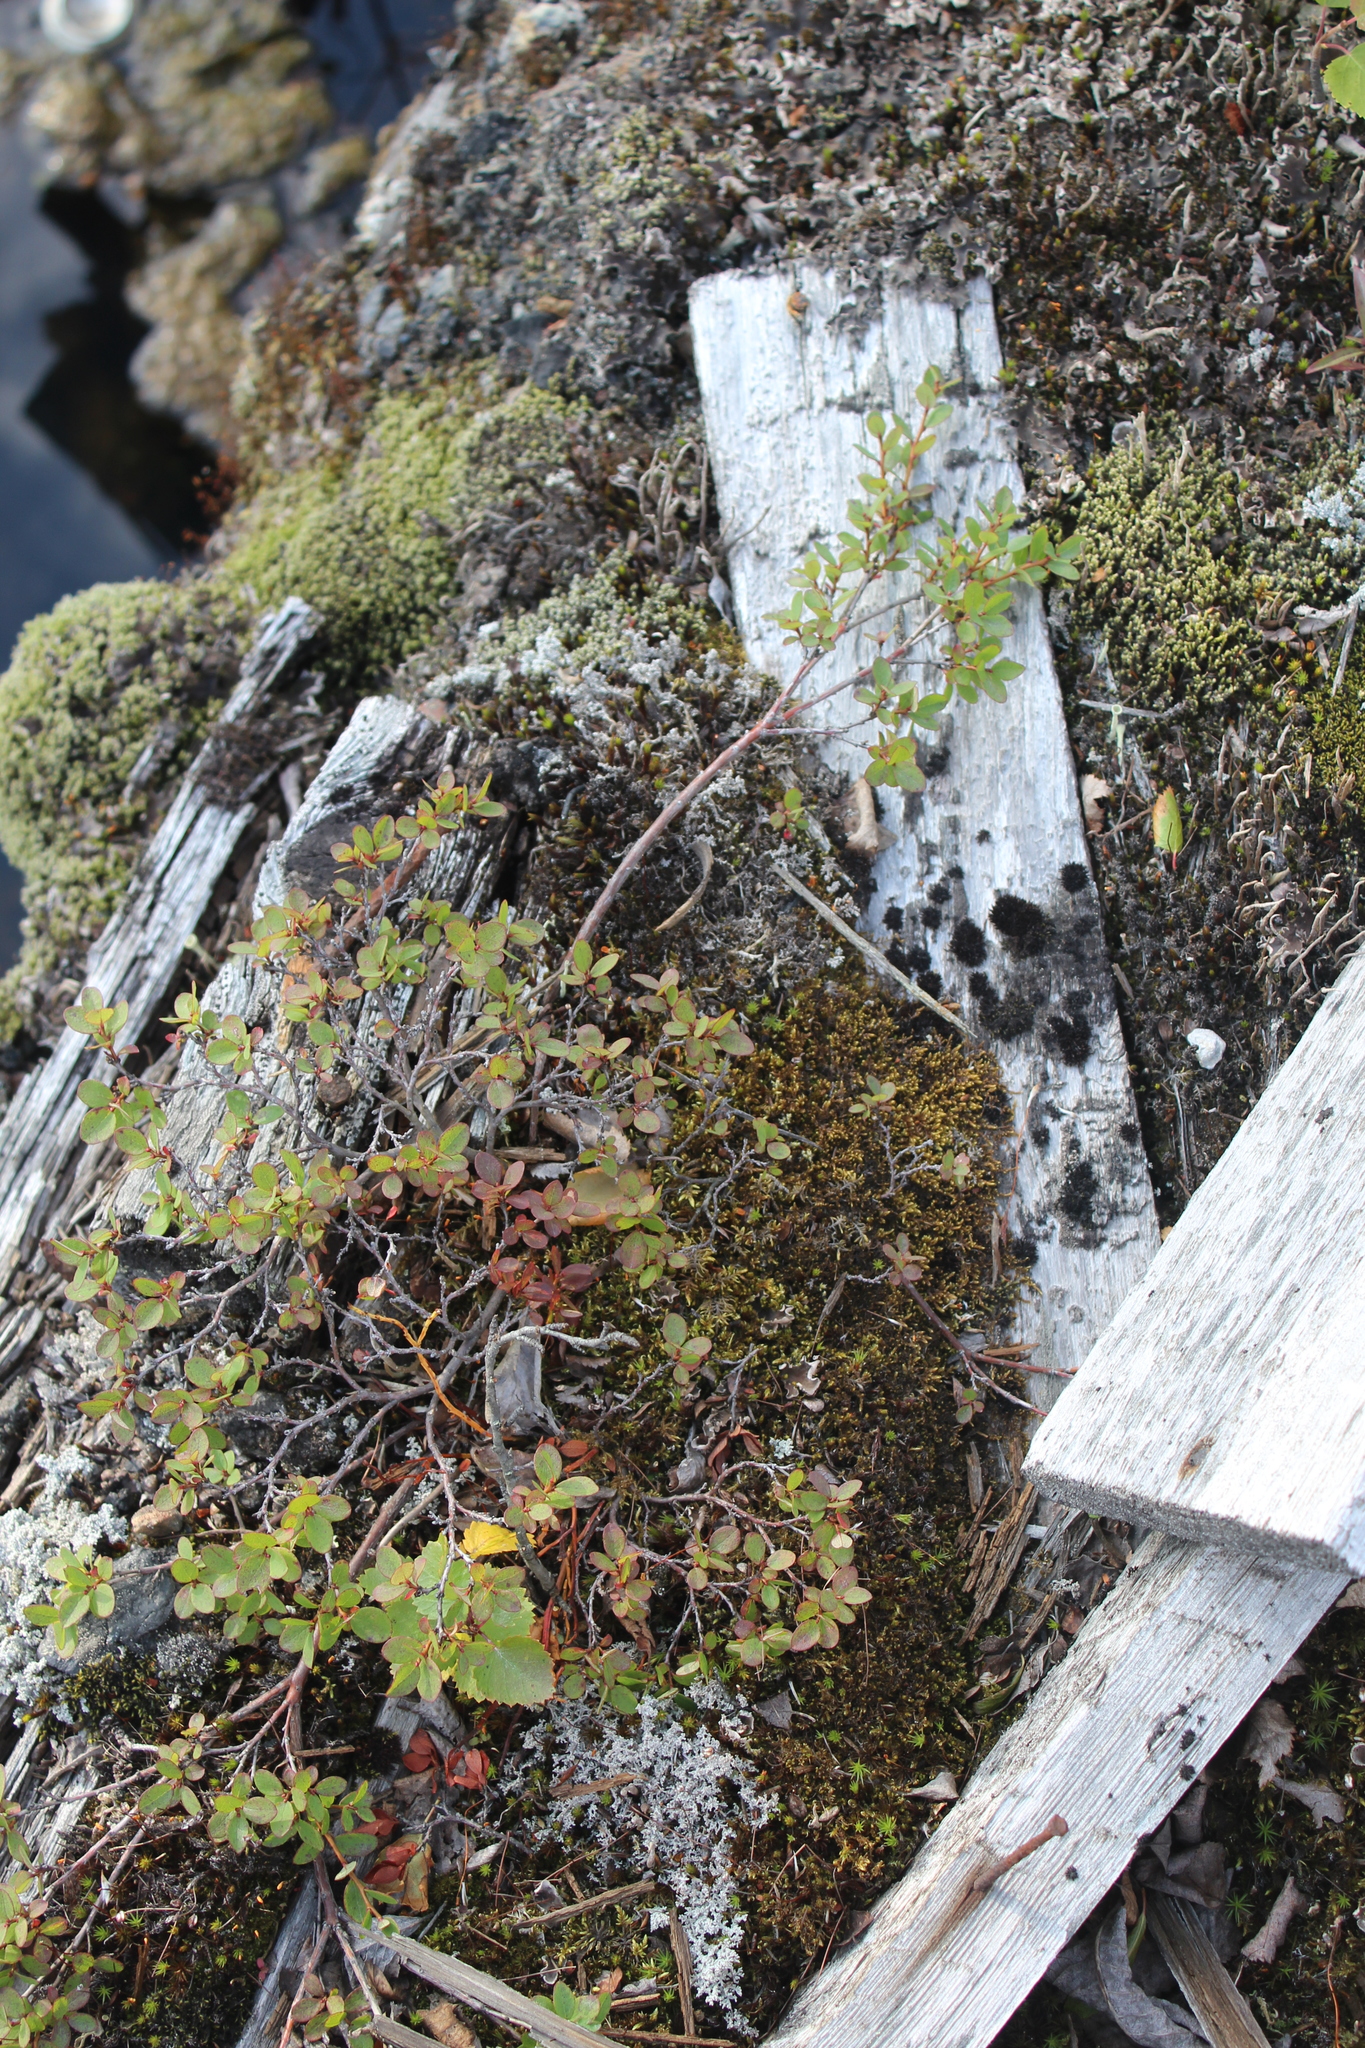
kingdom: Plantae
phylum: Tracheophyta
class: Magnoliopsida
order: Ericales
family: Ericaceae
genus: Vaccinium
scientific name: Vaccinium uliginosum
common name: Bog bilberry
